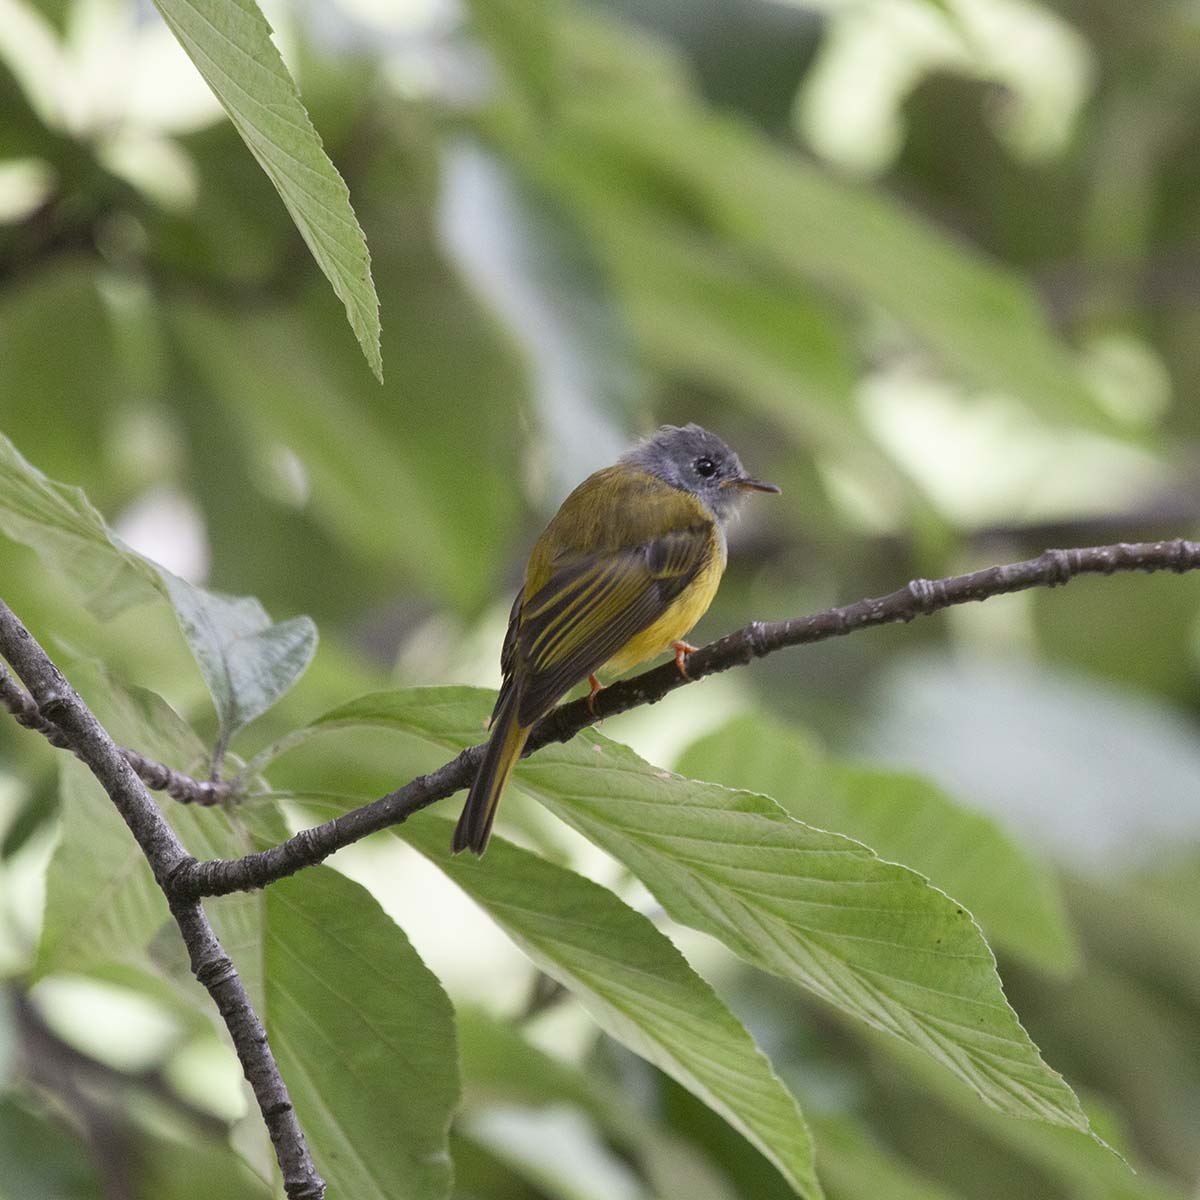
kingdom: Animalia
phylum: Chordata
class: Aves
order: Passeriformes
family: Stenostiridae
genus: Culicicapa
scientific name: Culicicapa ceylonensis
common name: Grey-headed canary-flycatcher
